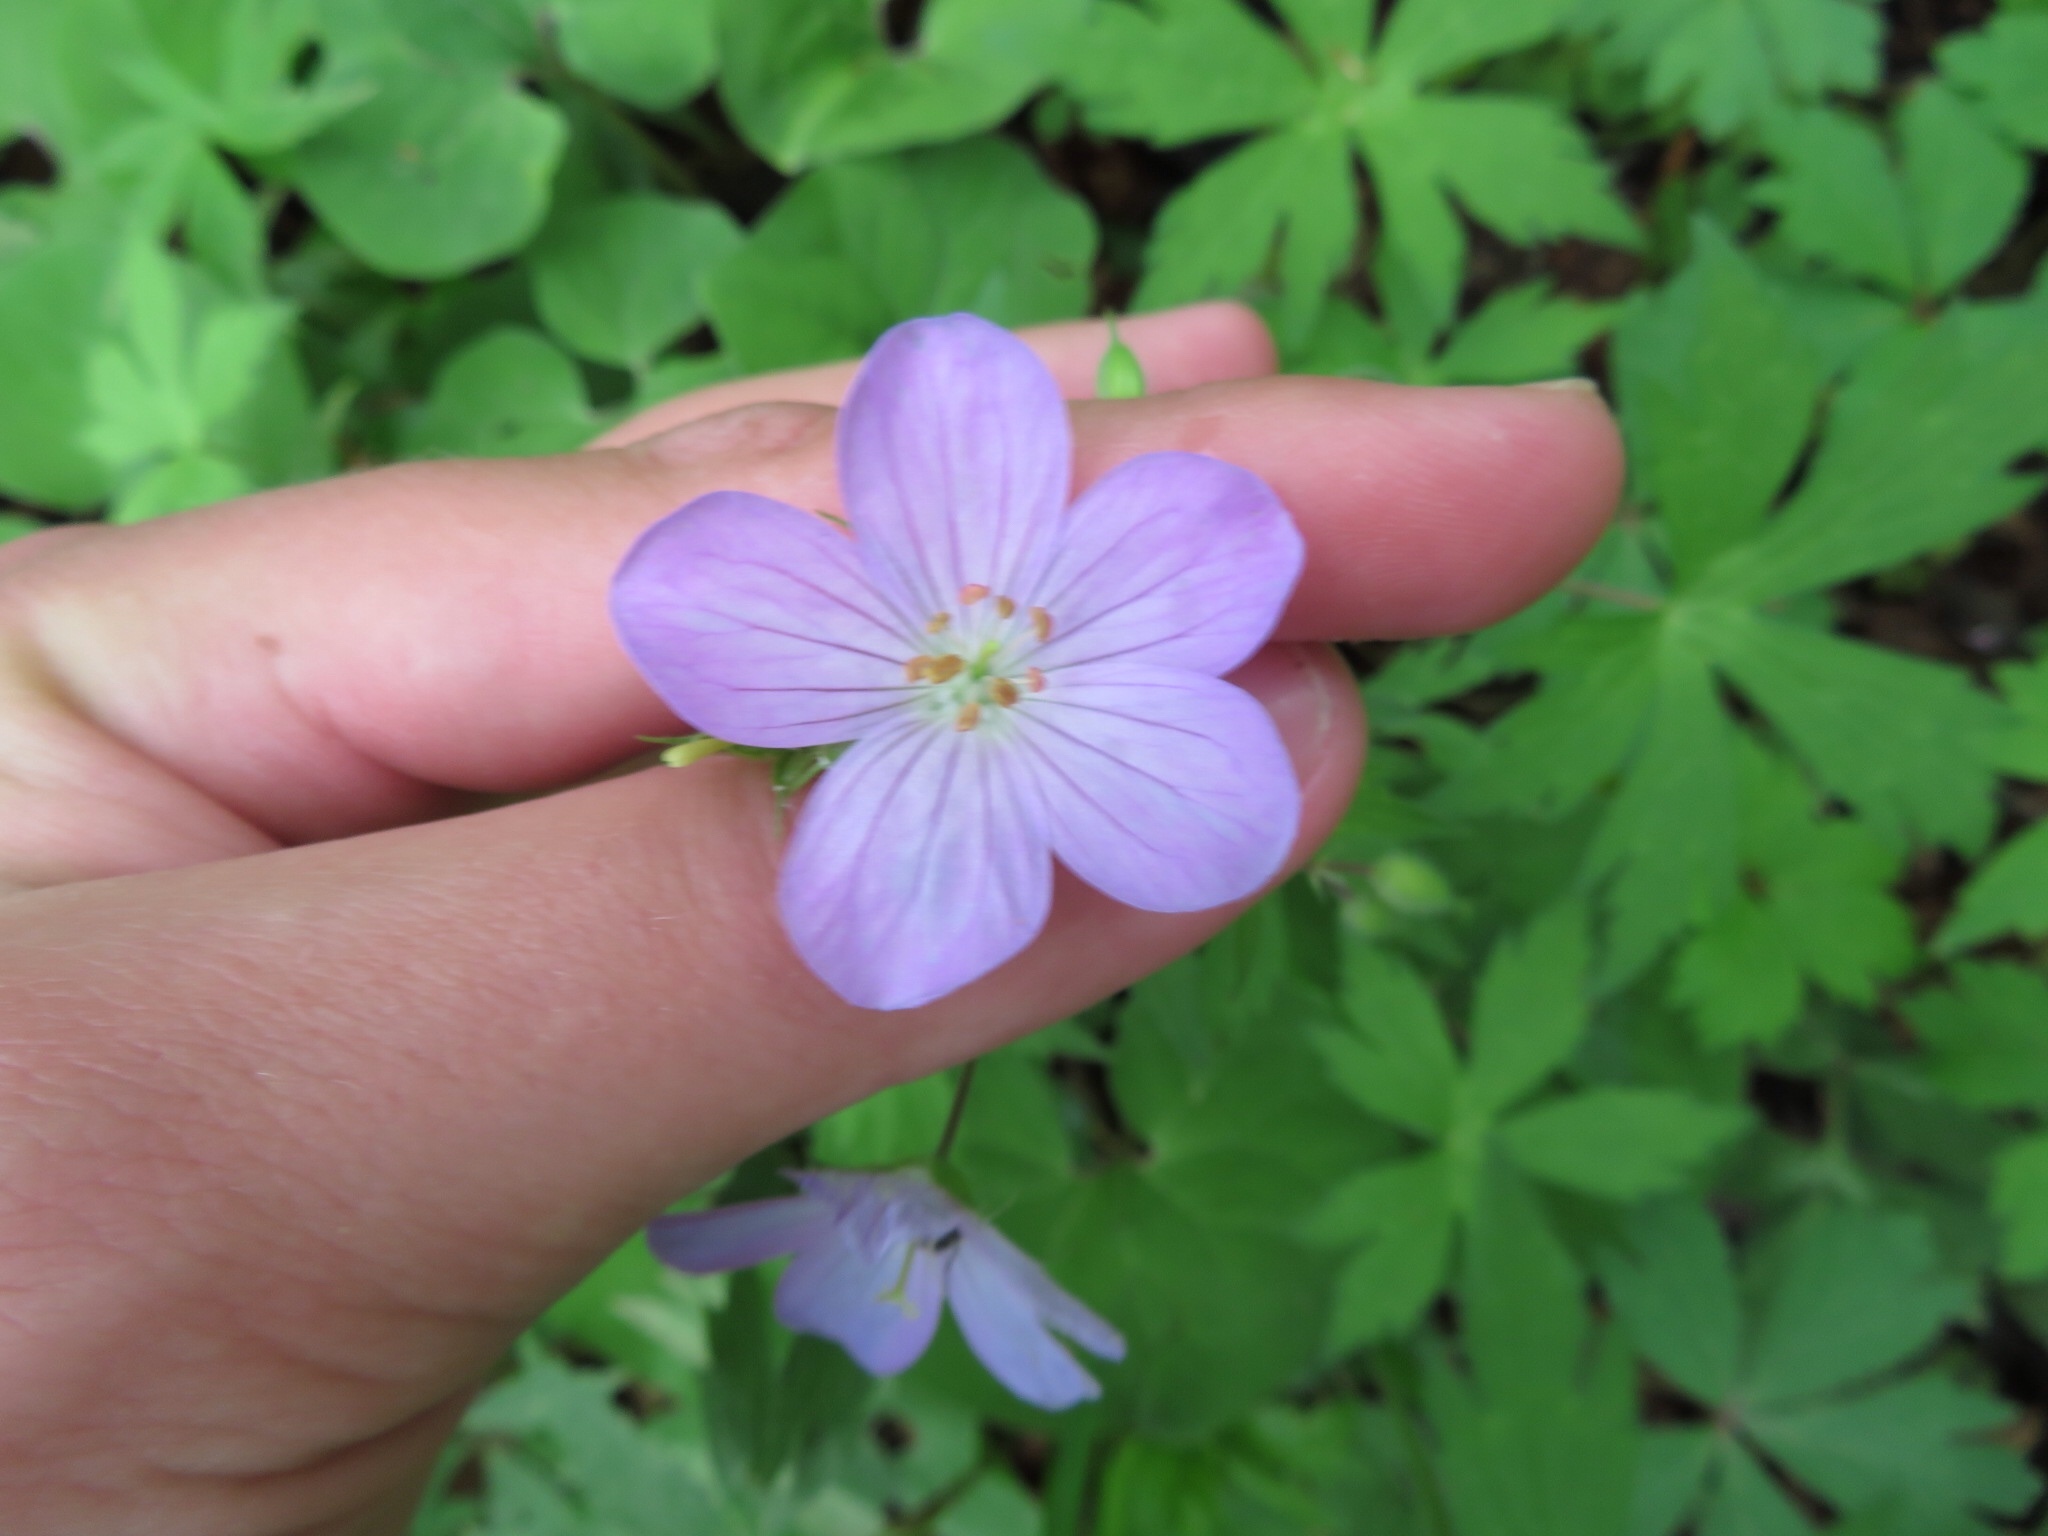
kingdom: Plantae
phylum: Tracheophyta
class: Magnoliopsida
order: Geraniales
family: Geraniaceae
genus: Geranium
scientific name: Geranium maculatum
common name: Spotted geranium
